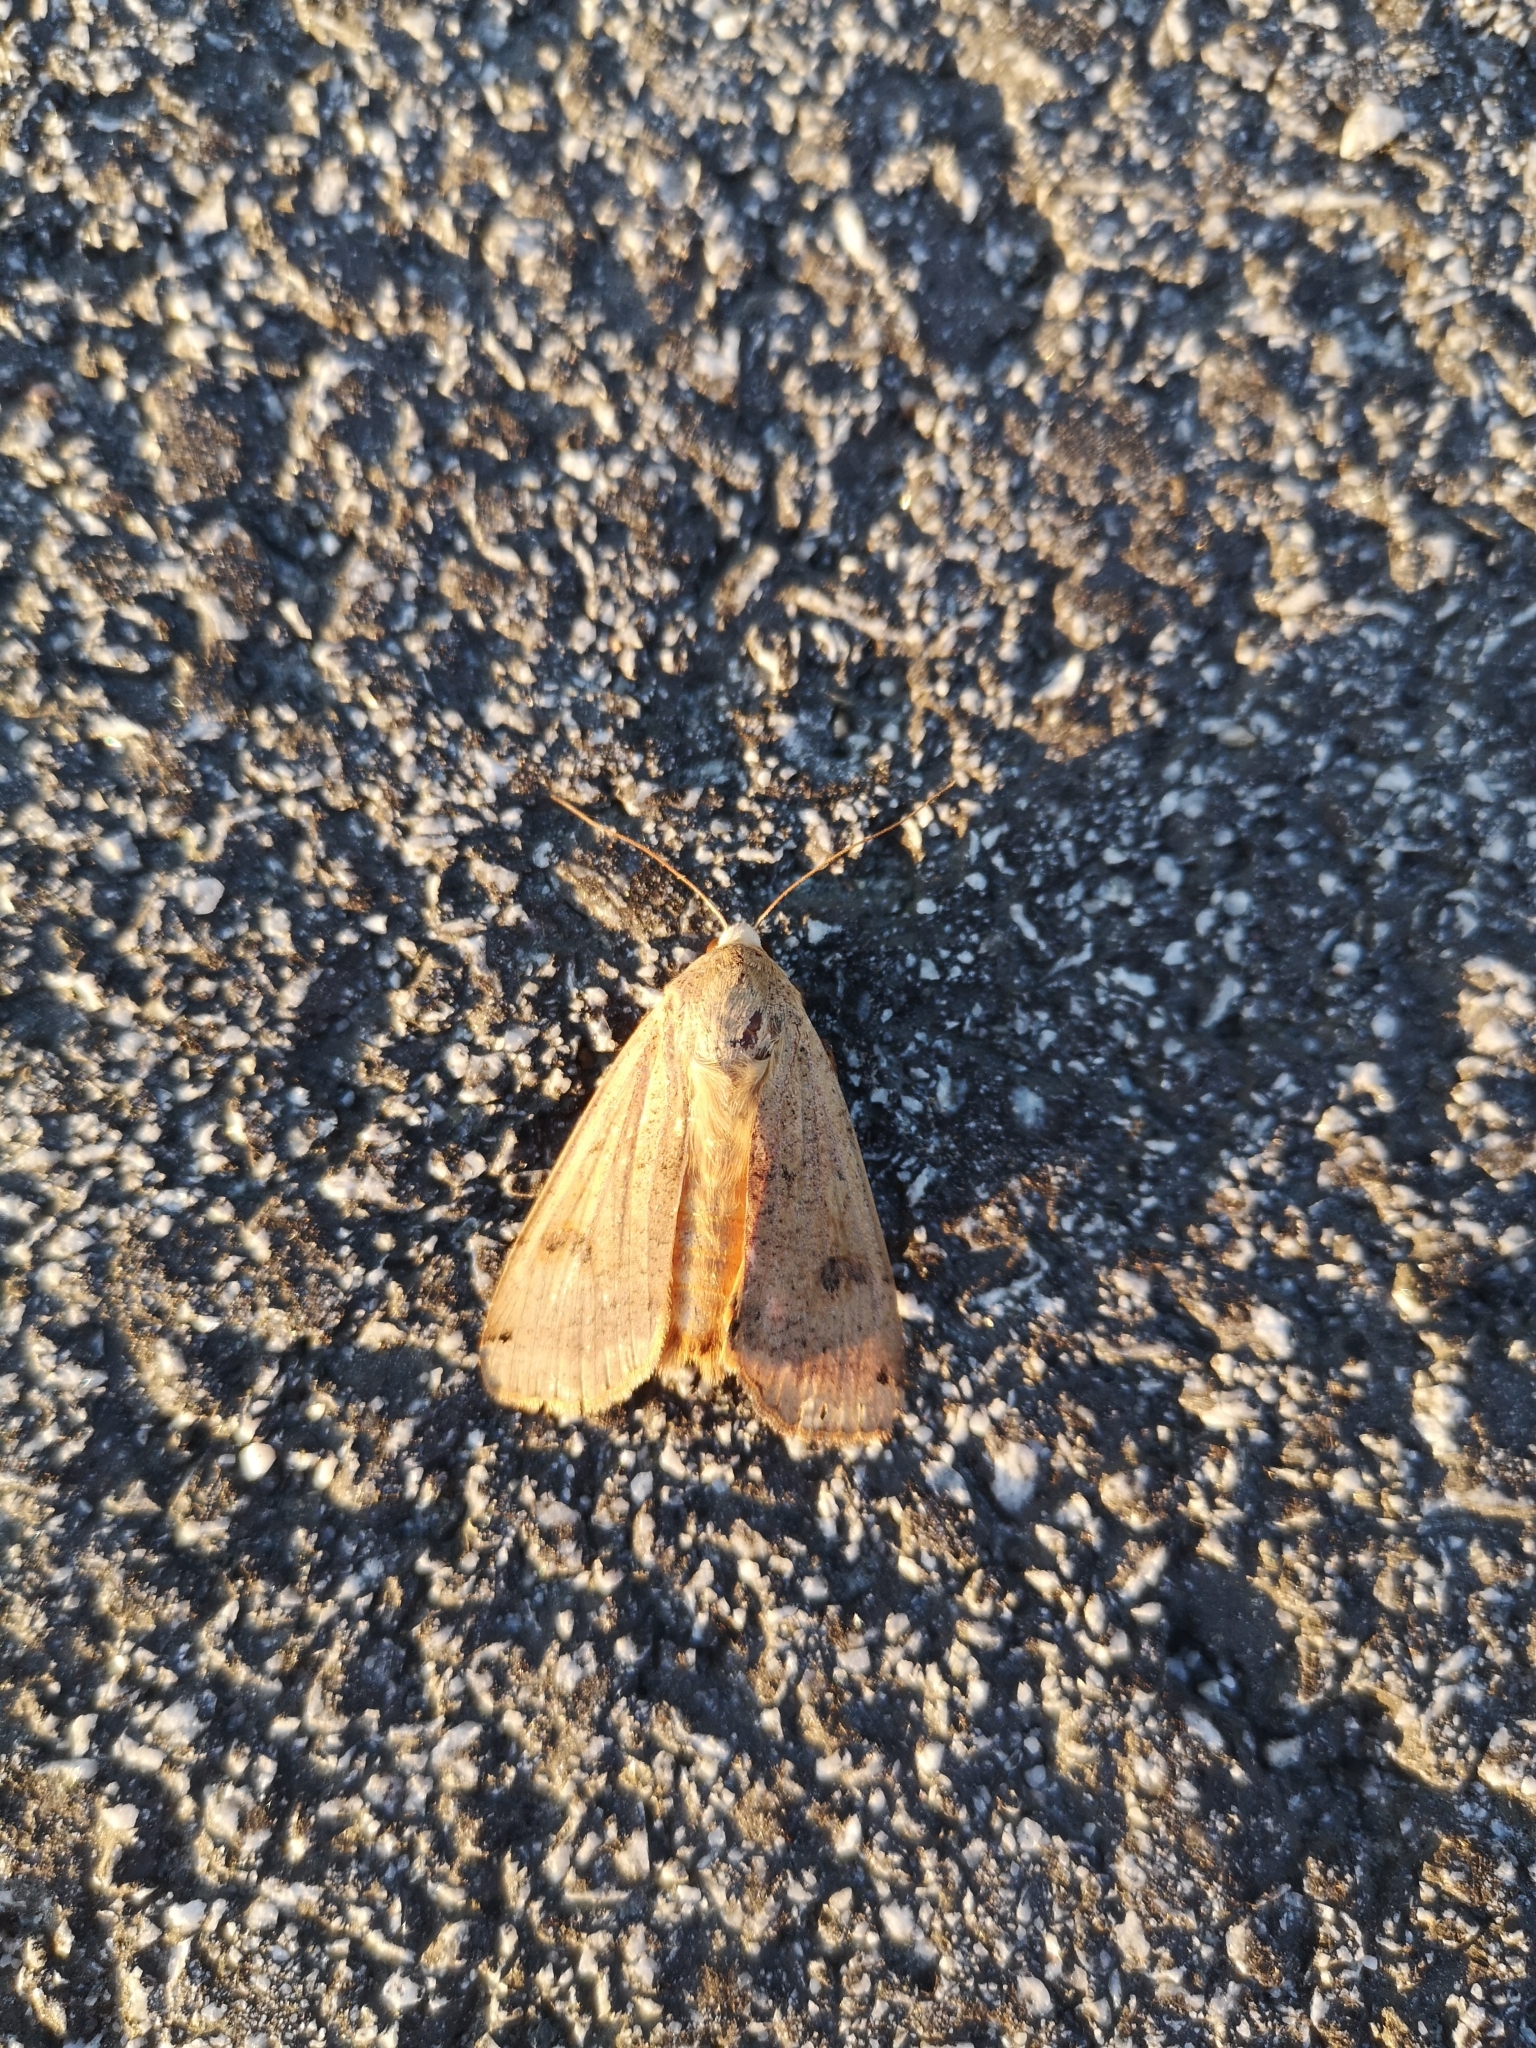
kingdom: Animalia
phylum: Arthropoda
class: Insecta
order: Lepidoptera
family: Noctuidae
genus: Noctua
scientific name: Noctua pronuba
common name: Large yellow underwing
